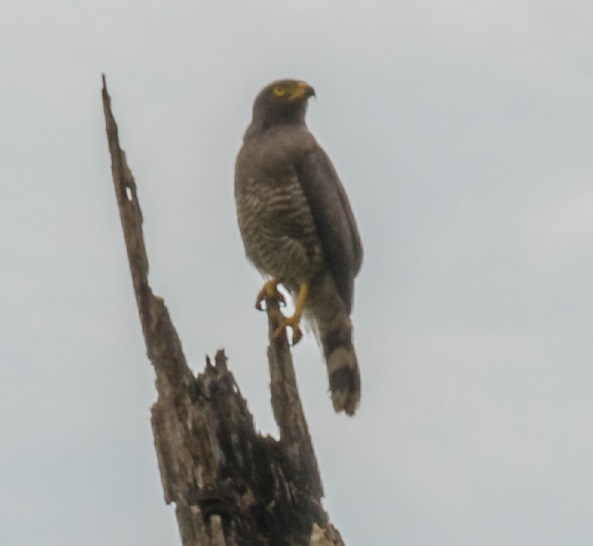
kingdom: Animalia
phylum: Chordata
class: Aves
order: Accipitriformes
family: Accipitridae
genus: Rupornis
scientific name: Rupornis magnirostris
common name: Roadside hawk
